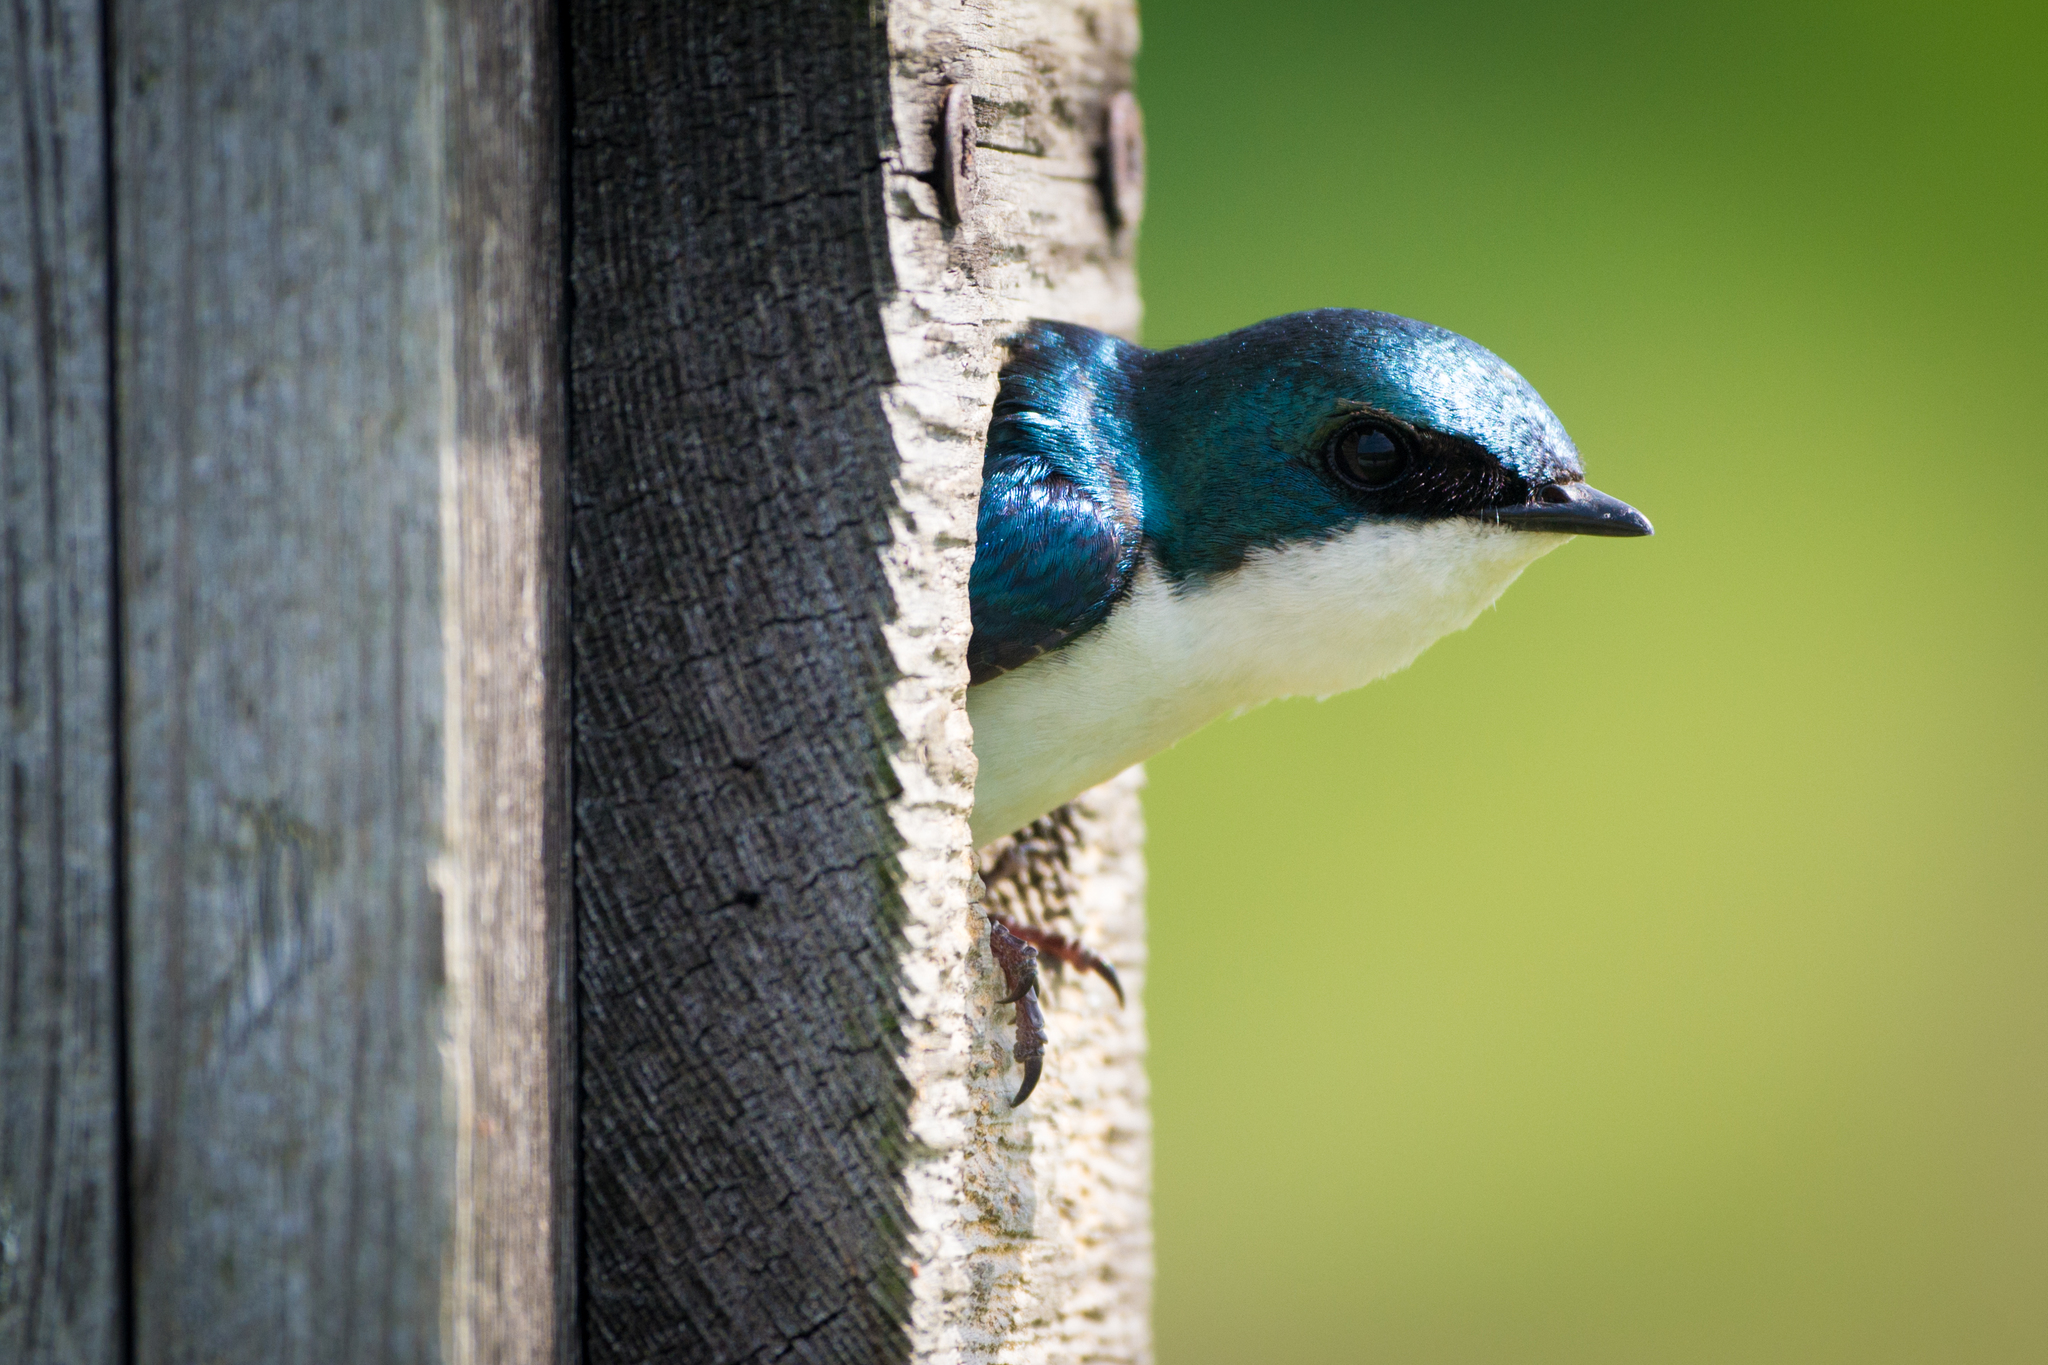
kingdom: Animalia
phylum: Chordata
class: Aves
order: Passeriformes
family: Hirundinidae
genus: Tachycineta
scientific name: Tachycineta bicolor
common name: Tree swallow
